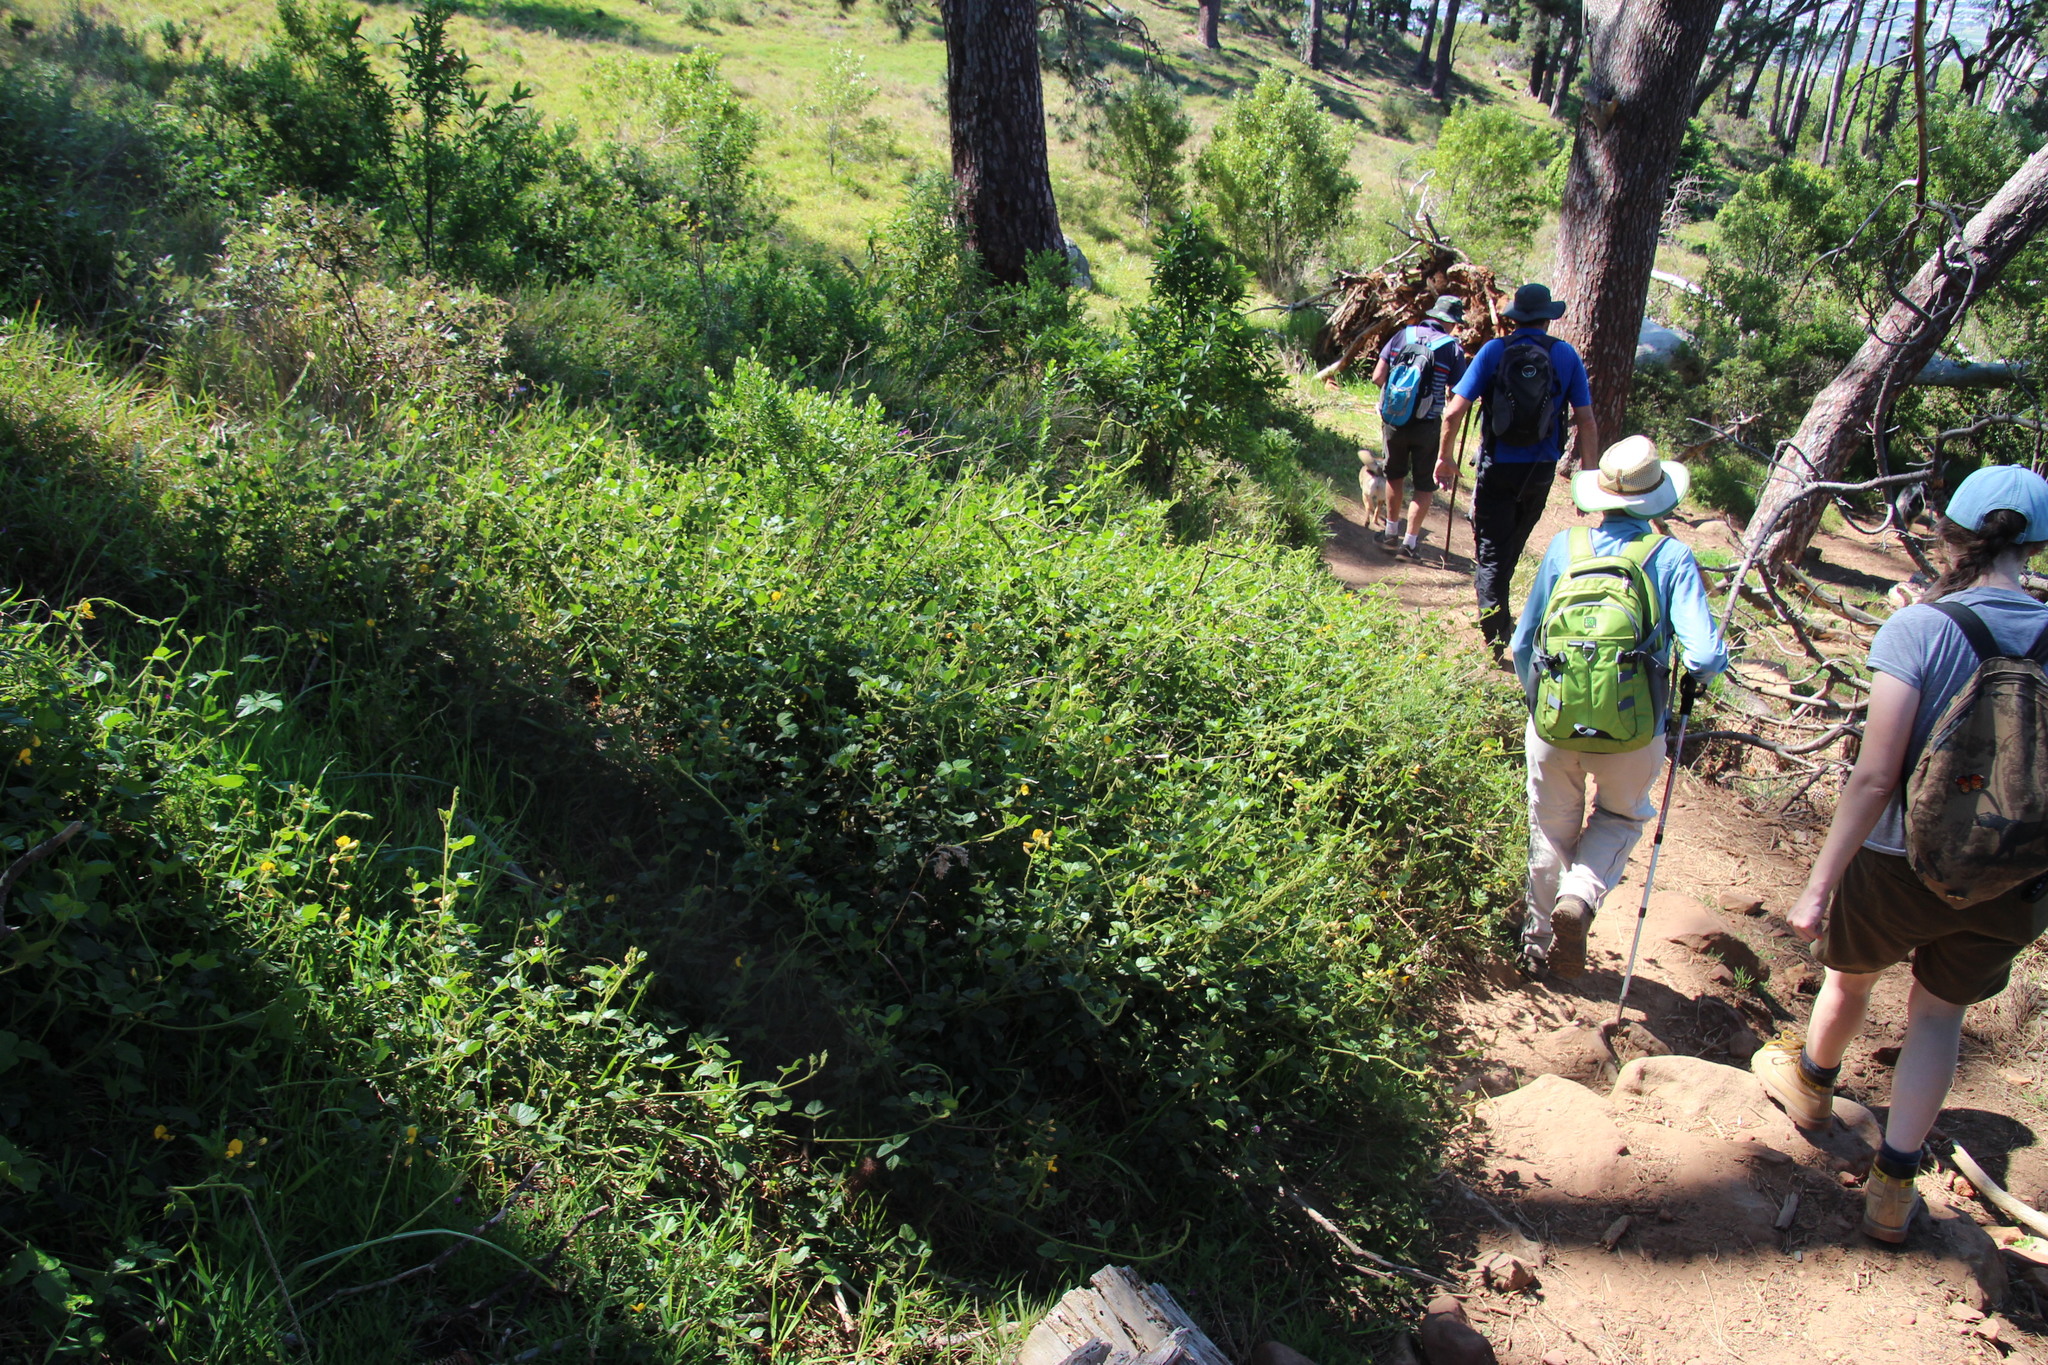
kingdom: Plantae
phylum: Tracheophyta
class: Magnoliopsida
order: Fabales
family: Fabaceae
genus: Bolusafra
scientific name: Bolusafra bituminosa
